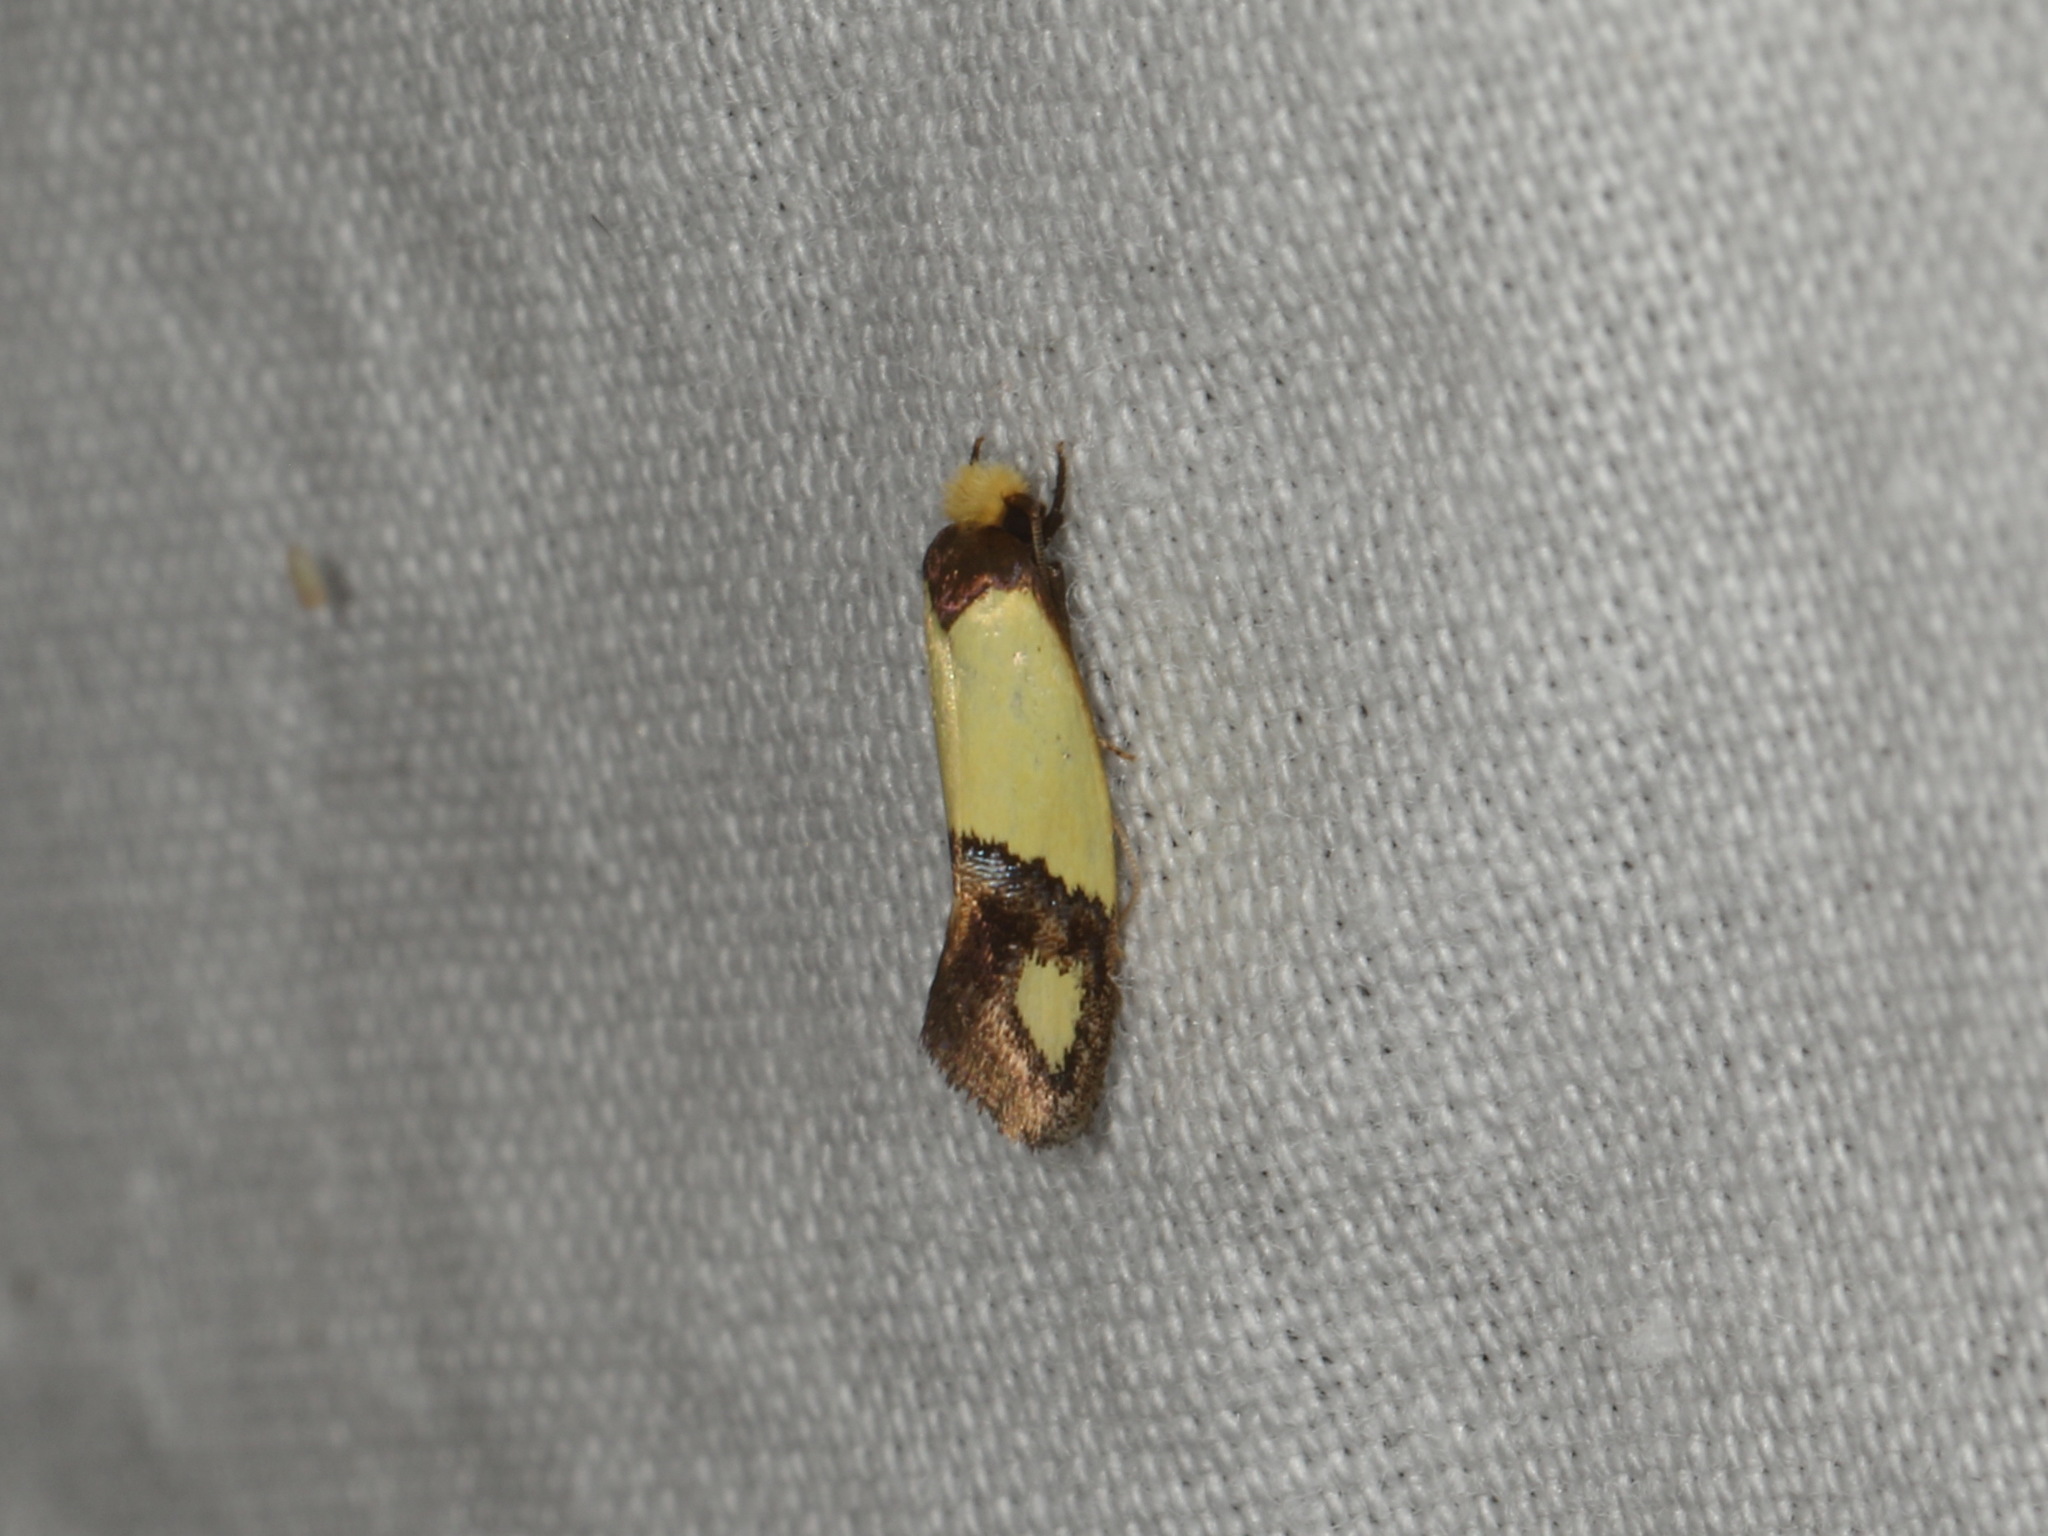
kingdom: Animalia
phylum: Arthropoda
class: Insecta
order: Lepidoptera
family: Tineidae
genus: Edosa
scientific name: Edosa fraudulens
